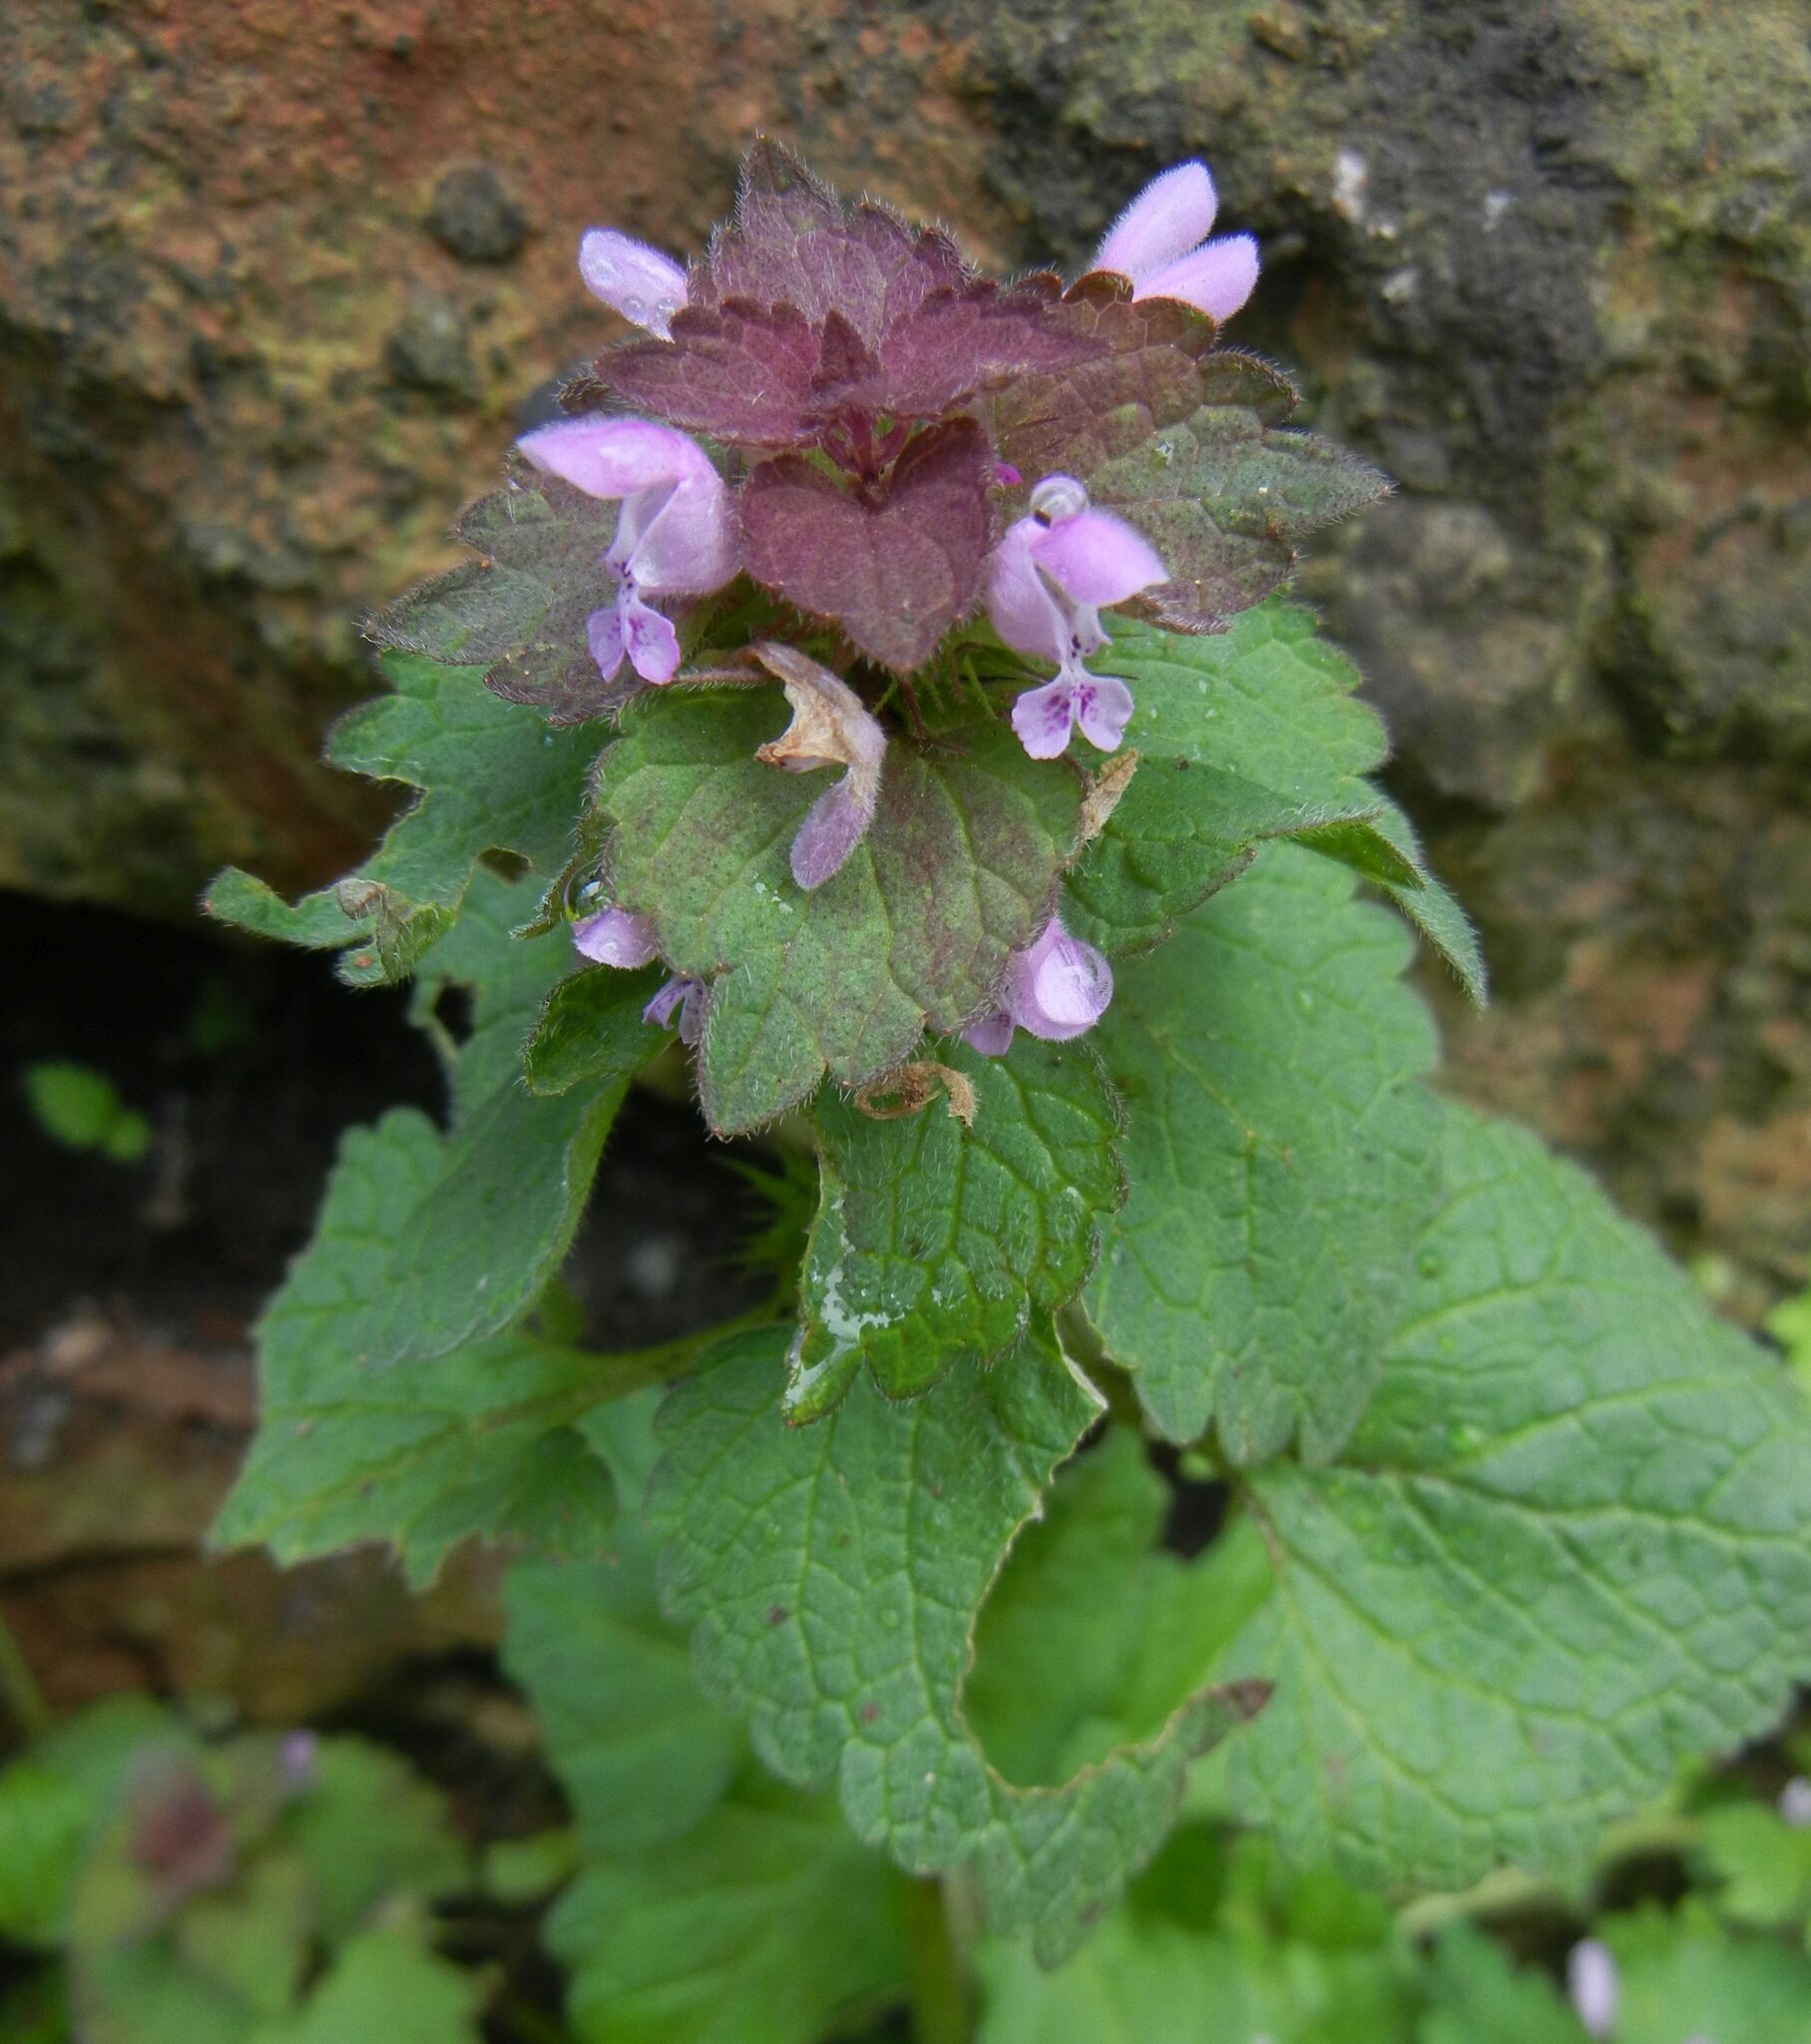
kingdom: Plantae
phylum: Tracheophyta
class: Magnoliopsida
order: Lamiales
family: Lamiaceae
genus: Lamium
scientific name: Lamium purpureum
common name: Red dead-nettle
